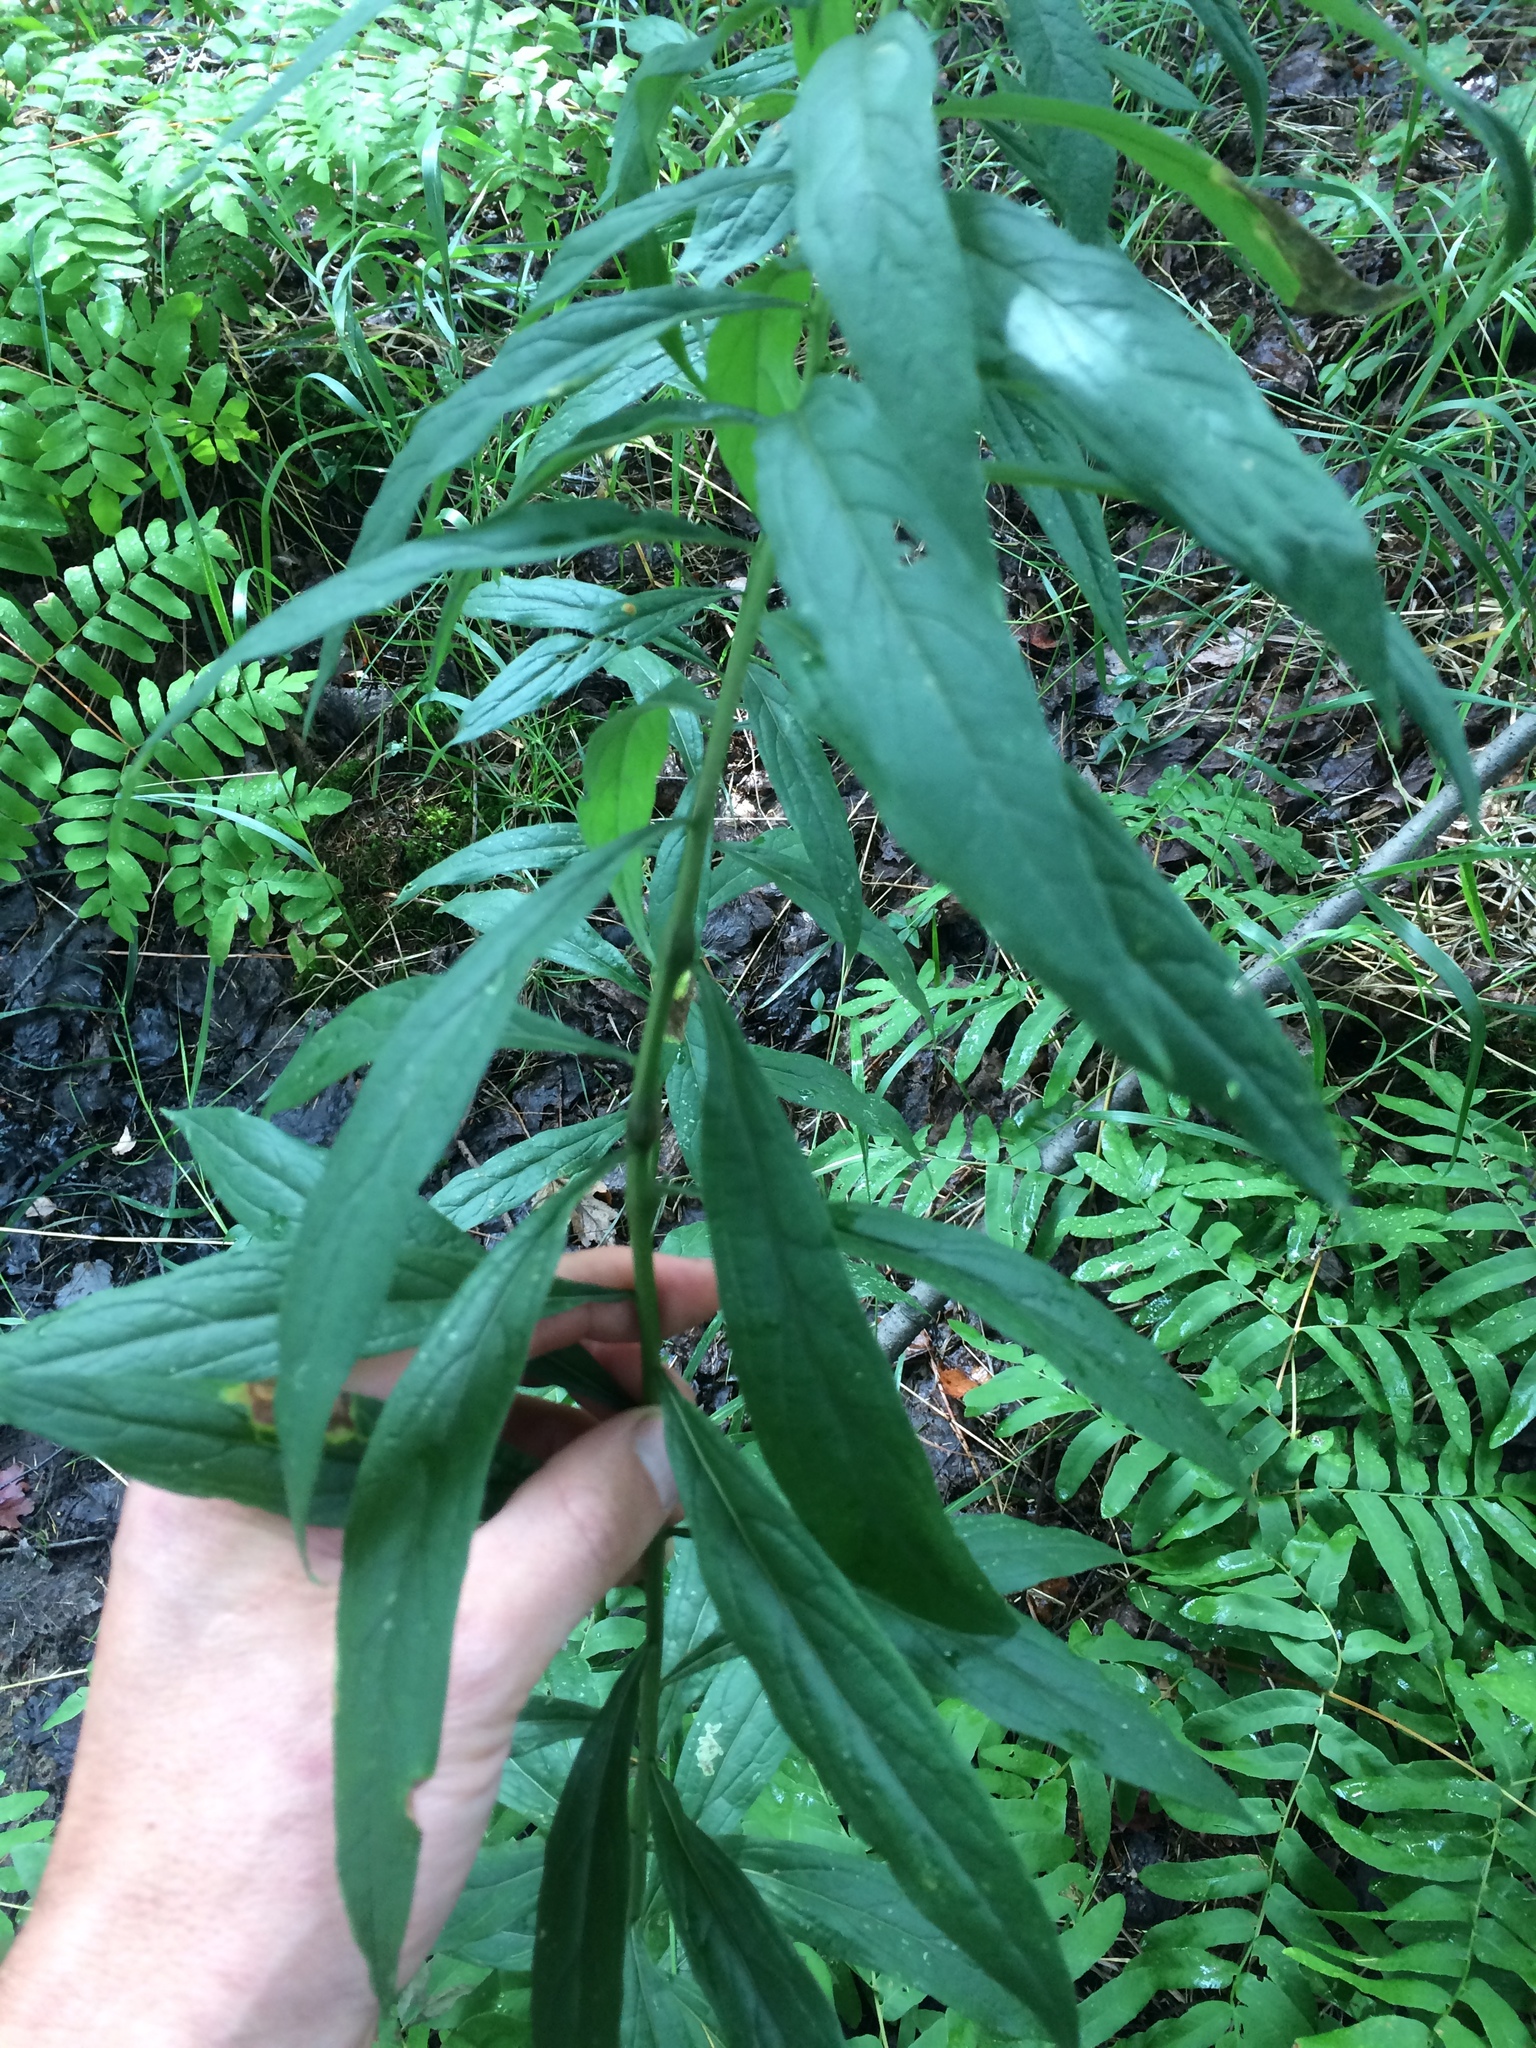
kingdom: Plantae
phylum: Tracheophyta
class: Magnoliopsida
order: Asterales
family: Asteraceae
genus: Doellingeria
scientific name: Doellingeria umbellata
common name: Flat-top white aster
